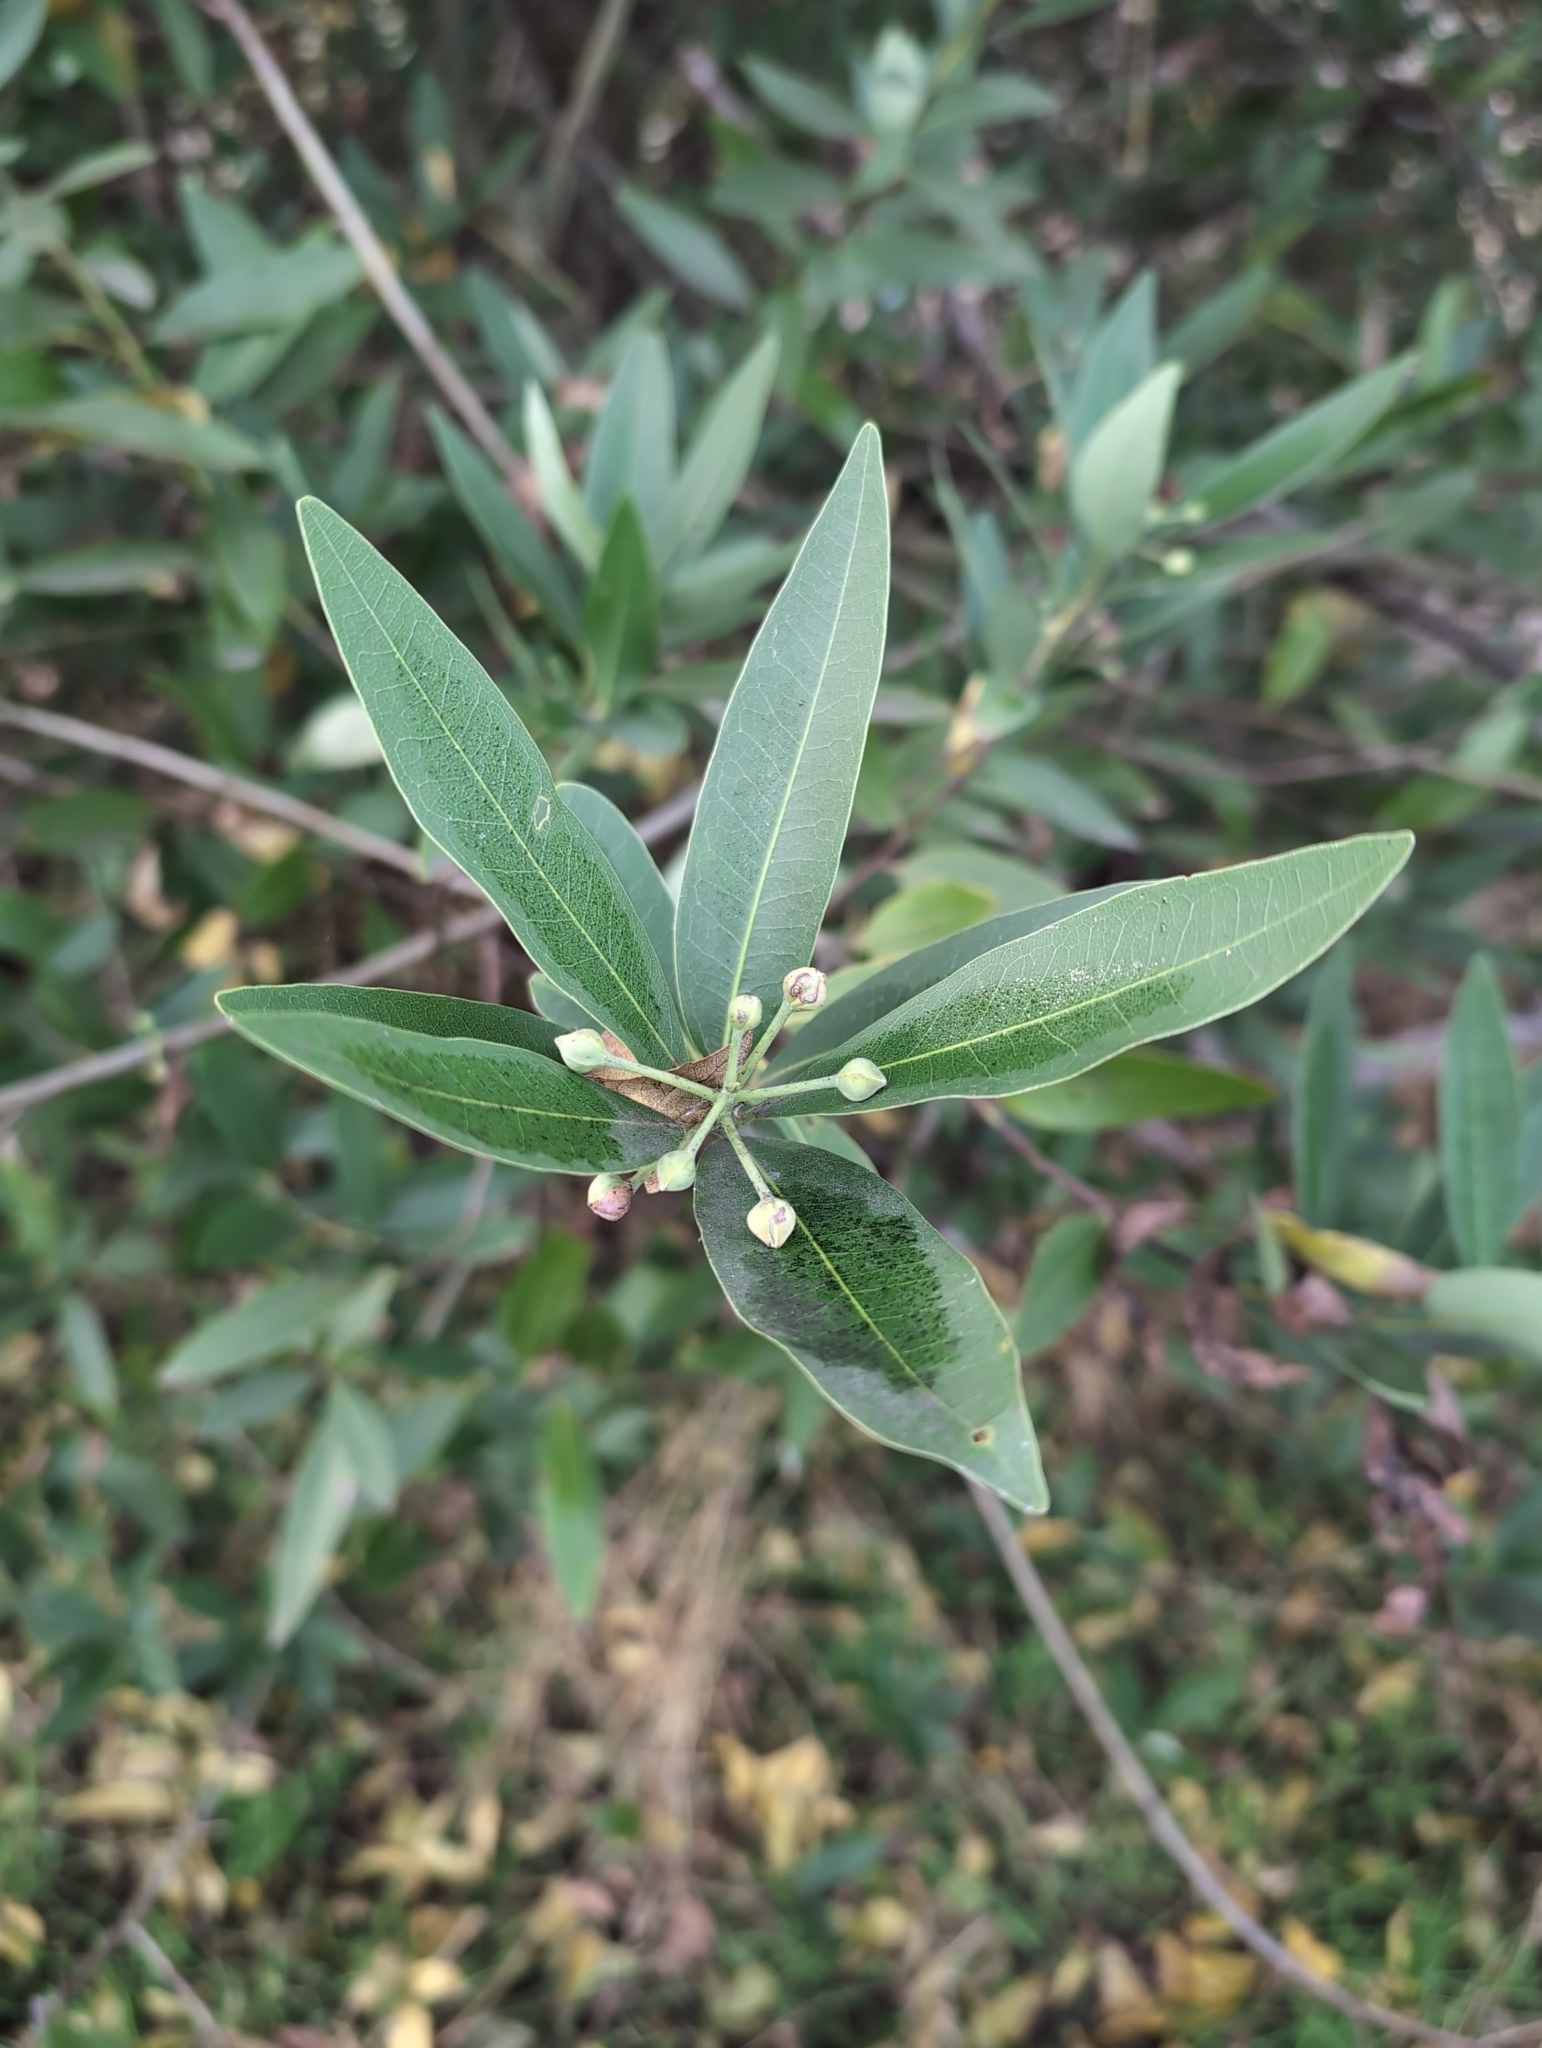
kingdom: Plantae
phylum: Tracheophyta
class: Magnoliopsida
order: Laurales
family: Lauraceae
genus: Umbellularia
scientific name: Umbellularia californica
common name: California bay
